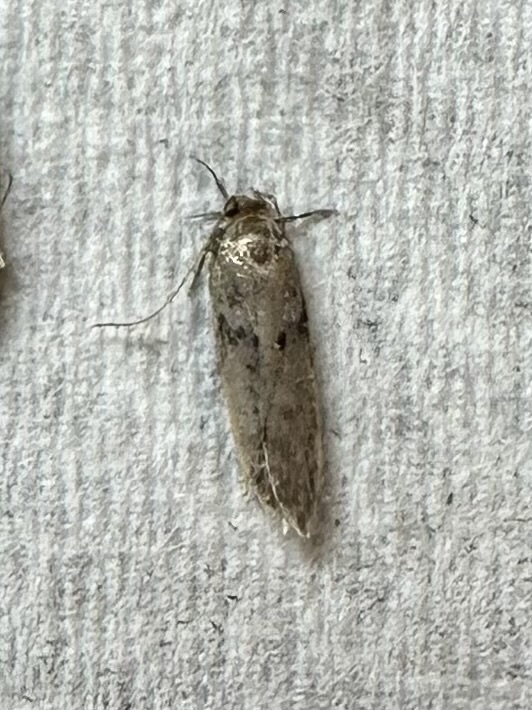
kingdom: Animalia
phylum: Arthropoda
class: Insecta
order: Lepidoptera
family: Blastobasidae
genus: Blastobasis
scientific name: Blastobasis glandulella
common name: Acorn moth
